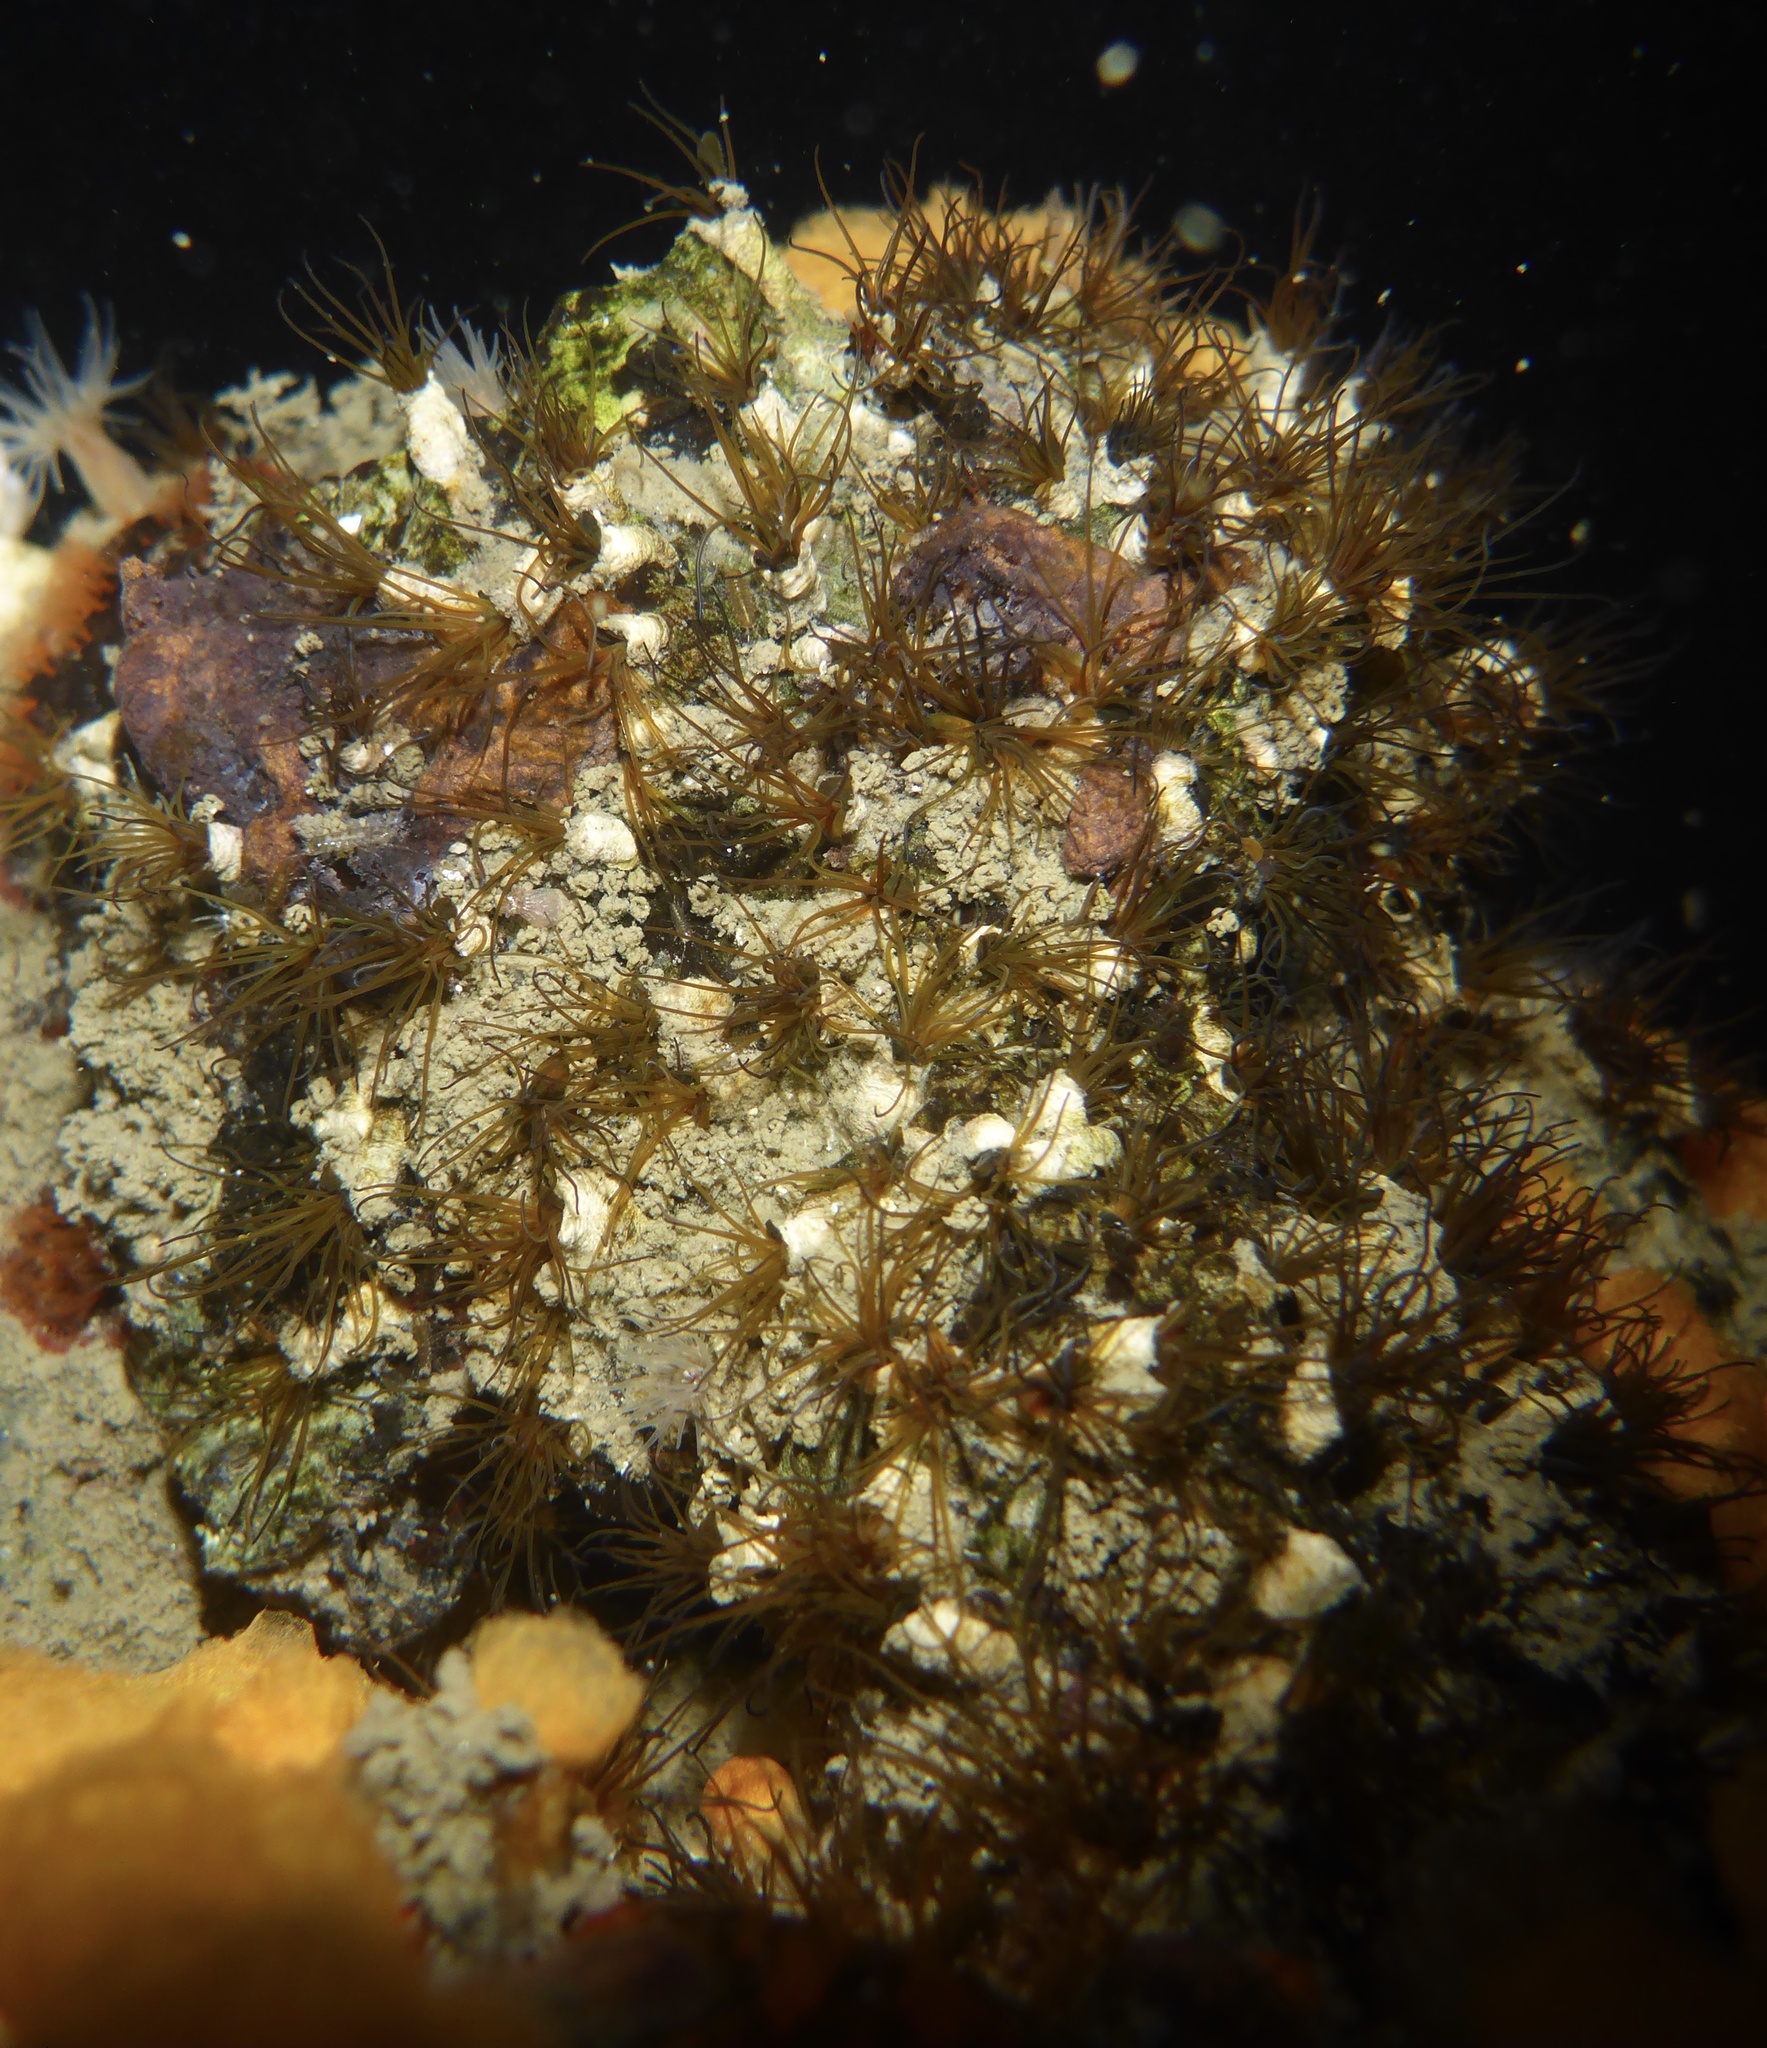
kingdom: Animalia
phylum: Annelida
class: Polychaeta
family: Cirratulidae
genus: Dodecaceria
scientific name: Dodecaceria pacifica
